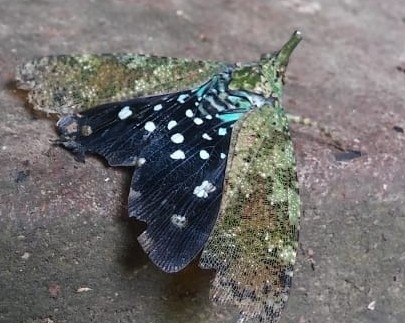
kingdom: Animalia
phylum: Arthropoda
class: Insecta
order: Hemiptera
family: Fulgoridae
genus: Diareusa
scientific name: Diareusa imitatrix
